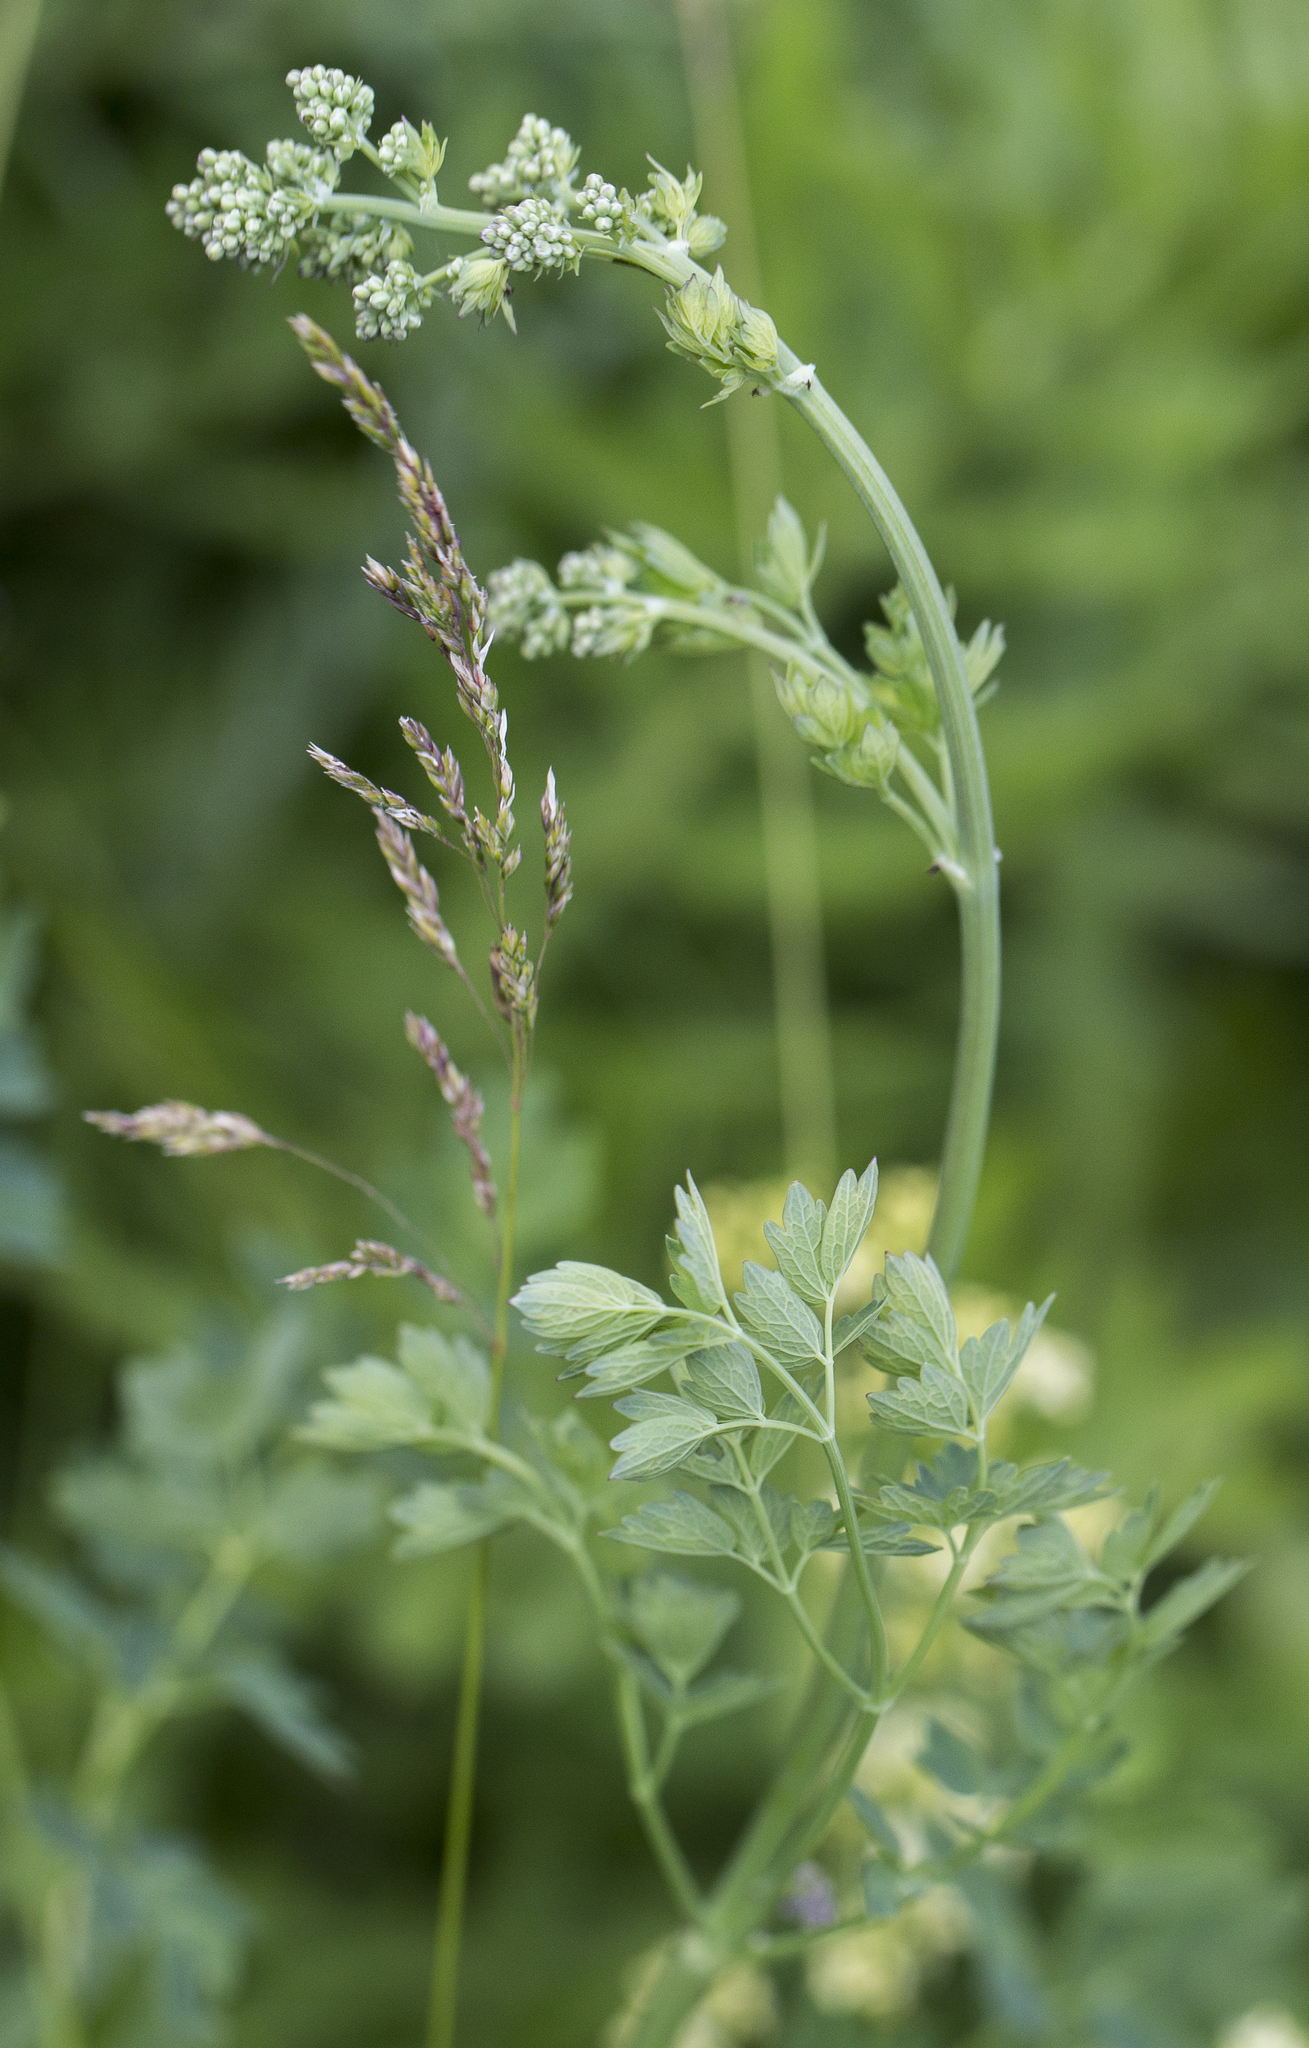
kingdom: Plantae
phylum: Tracheophyta
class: Magnoliopsida
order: Ranunculales
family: Ranunculaceae
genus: Thalictrum
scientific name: Thalictrum minus
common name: Lesser meadow-rue
